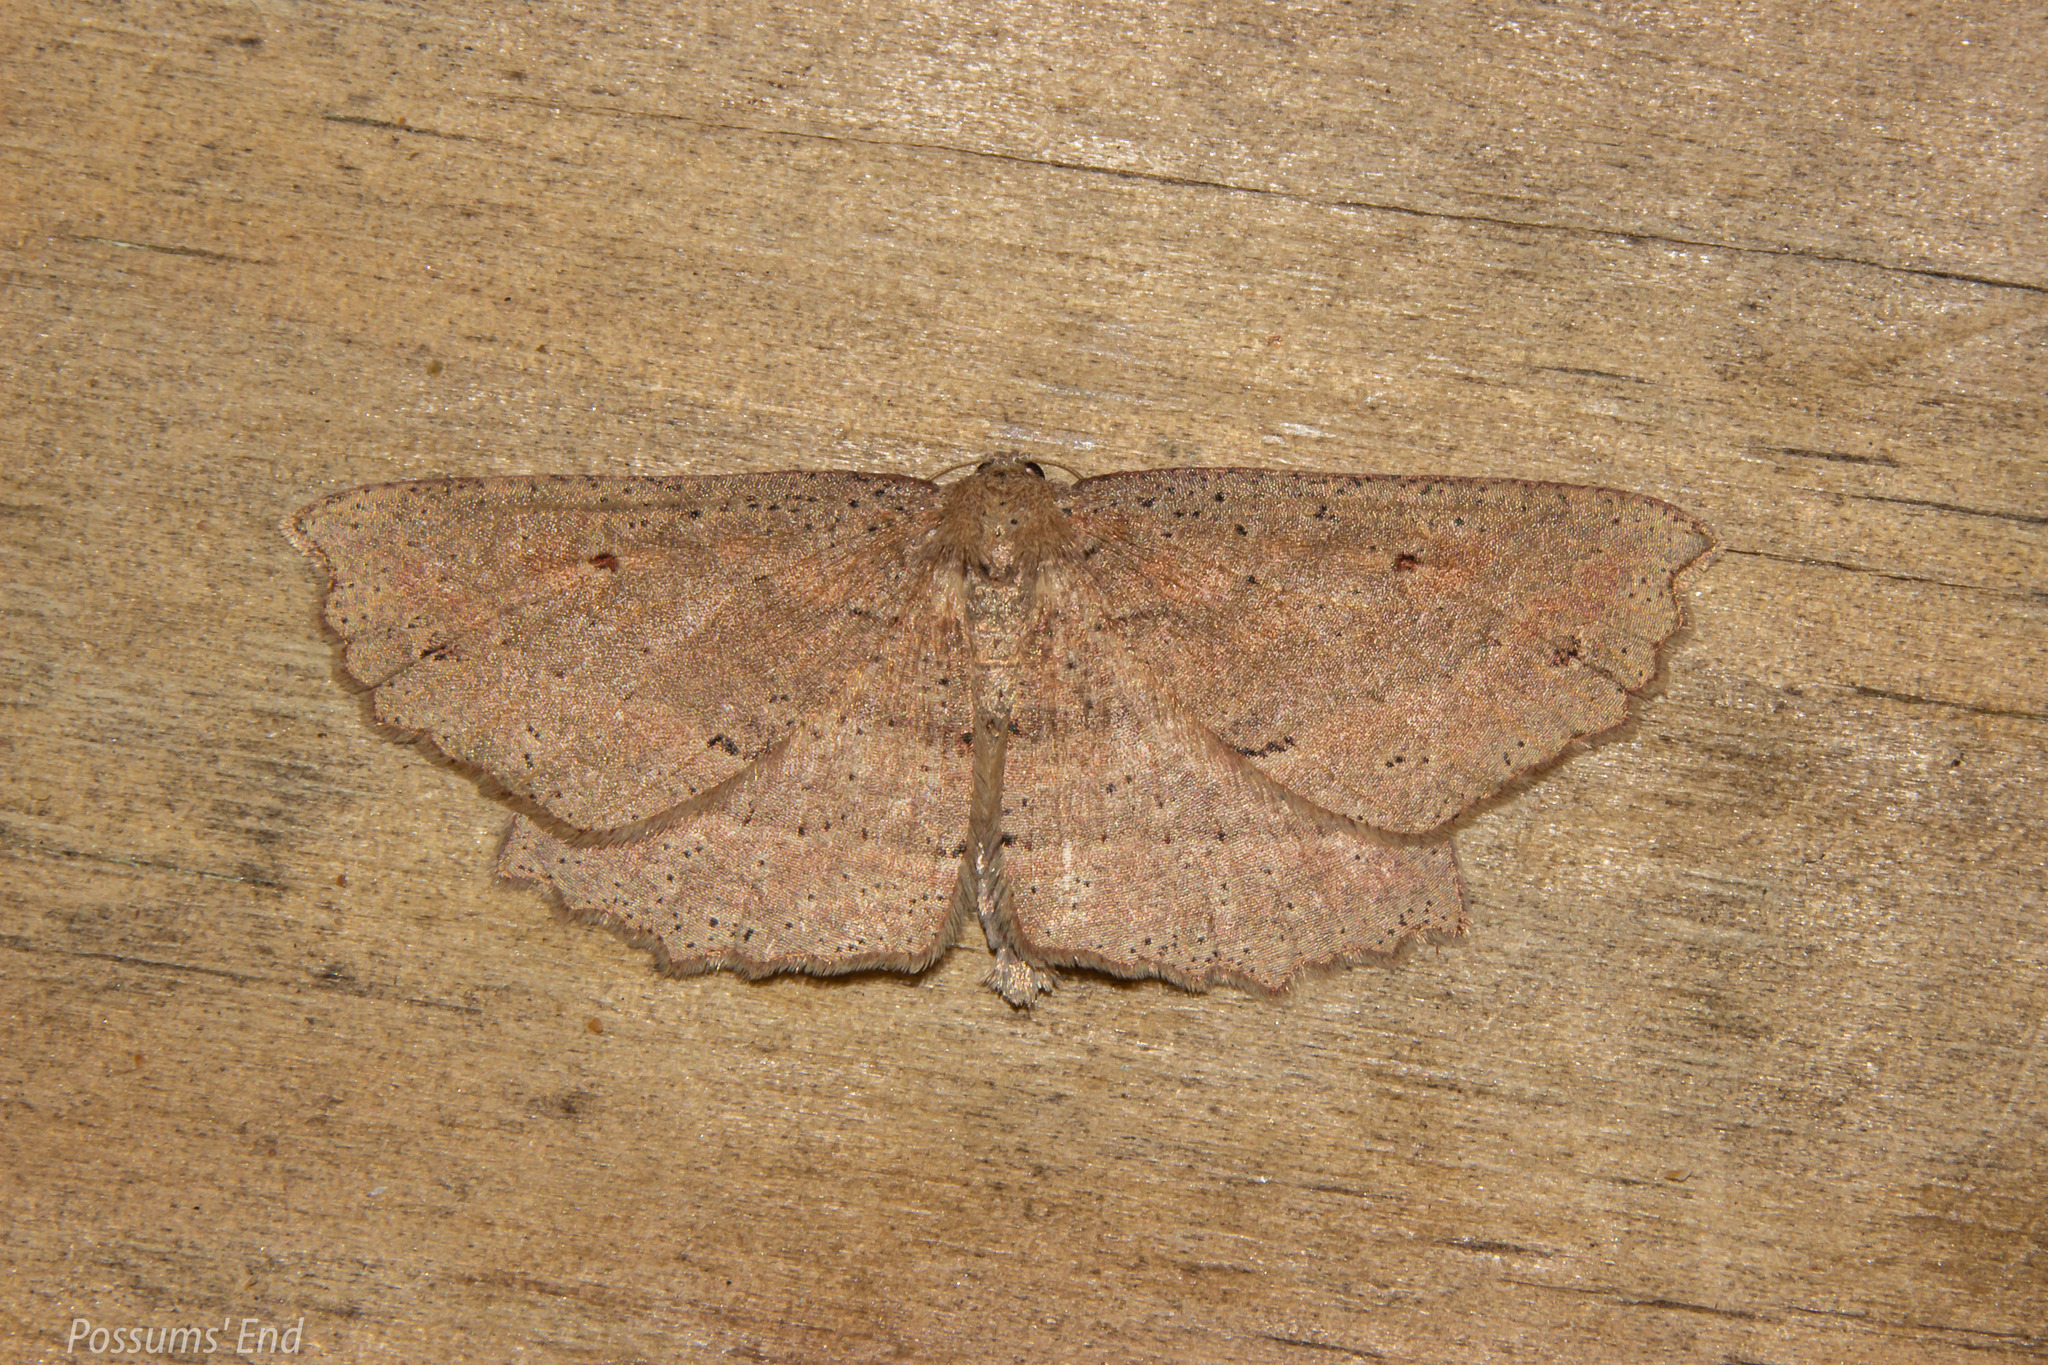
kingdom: Animalia
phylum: Arthropoda
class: Insecta
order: Lepidoptera
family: Geometridae
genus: Xyridacma
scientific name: Xyridacma veronicae
